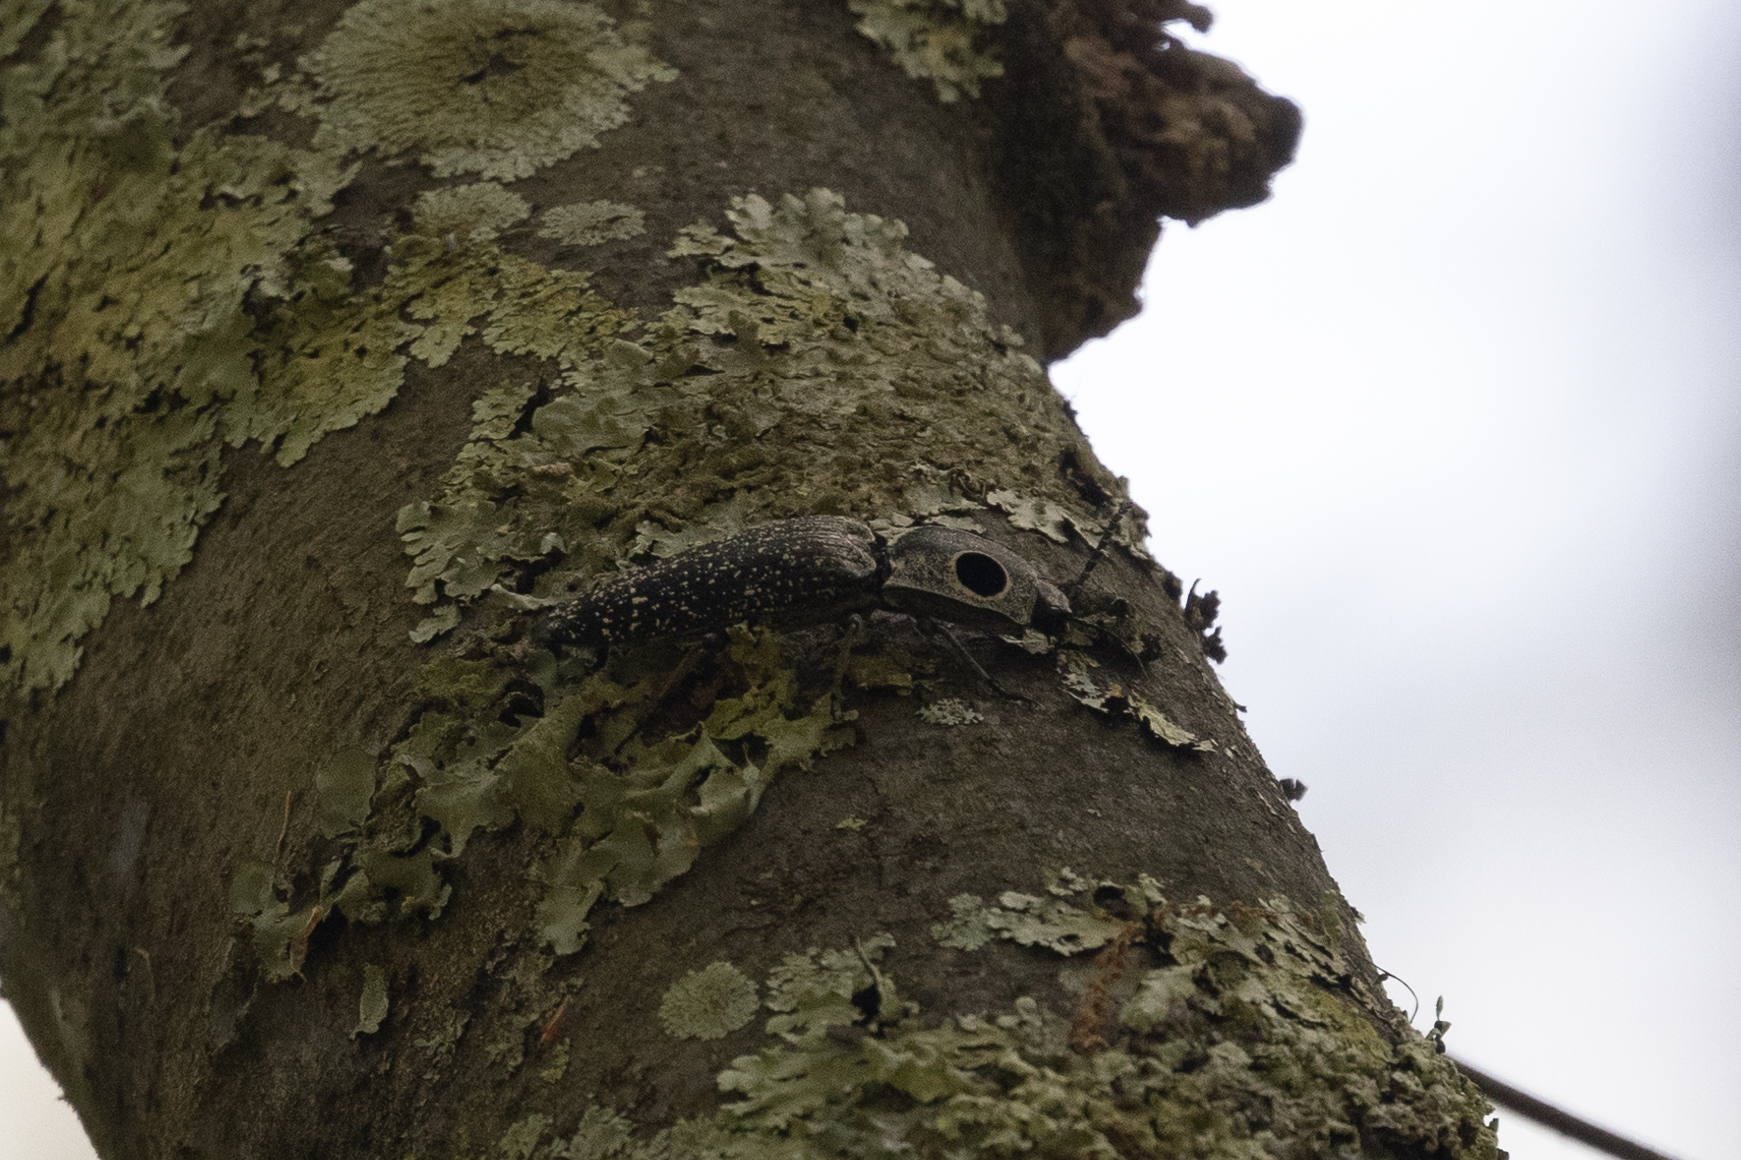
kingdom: Animalia
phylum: Arthropoda
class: Insecta
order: Coleoptera
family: Elateridae
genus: Alaus
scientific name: Alaus oculatus
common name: Eastern eyed click beetle
